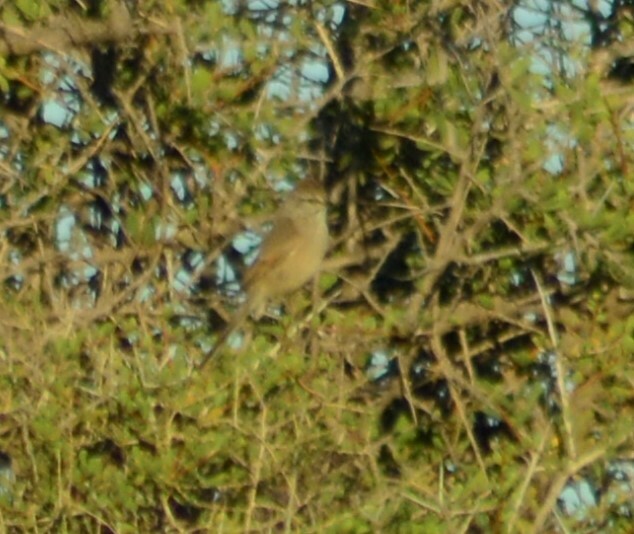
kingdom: Animalia
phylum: Chordata
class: Aves
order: Passeriformes
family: Furnariidae
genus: Leptasthenura
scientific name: Leptasthenura aegithaloides
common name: Plain-mantled tit-spinetail
